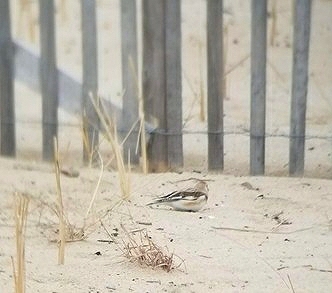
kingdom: Animalia
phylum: Chordata
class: Aves
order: Passeriformes
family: Calcariidae
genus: Plectrophenax
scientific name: Plectrophenax nivalis
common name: Snow bunting
